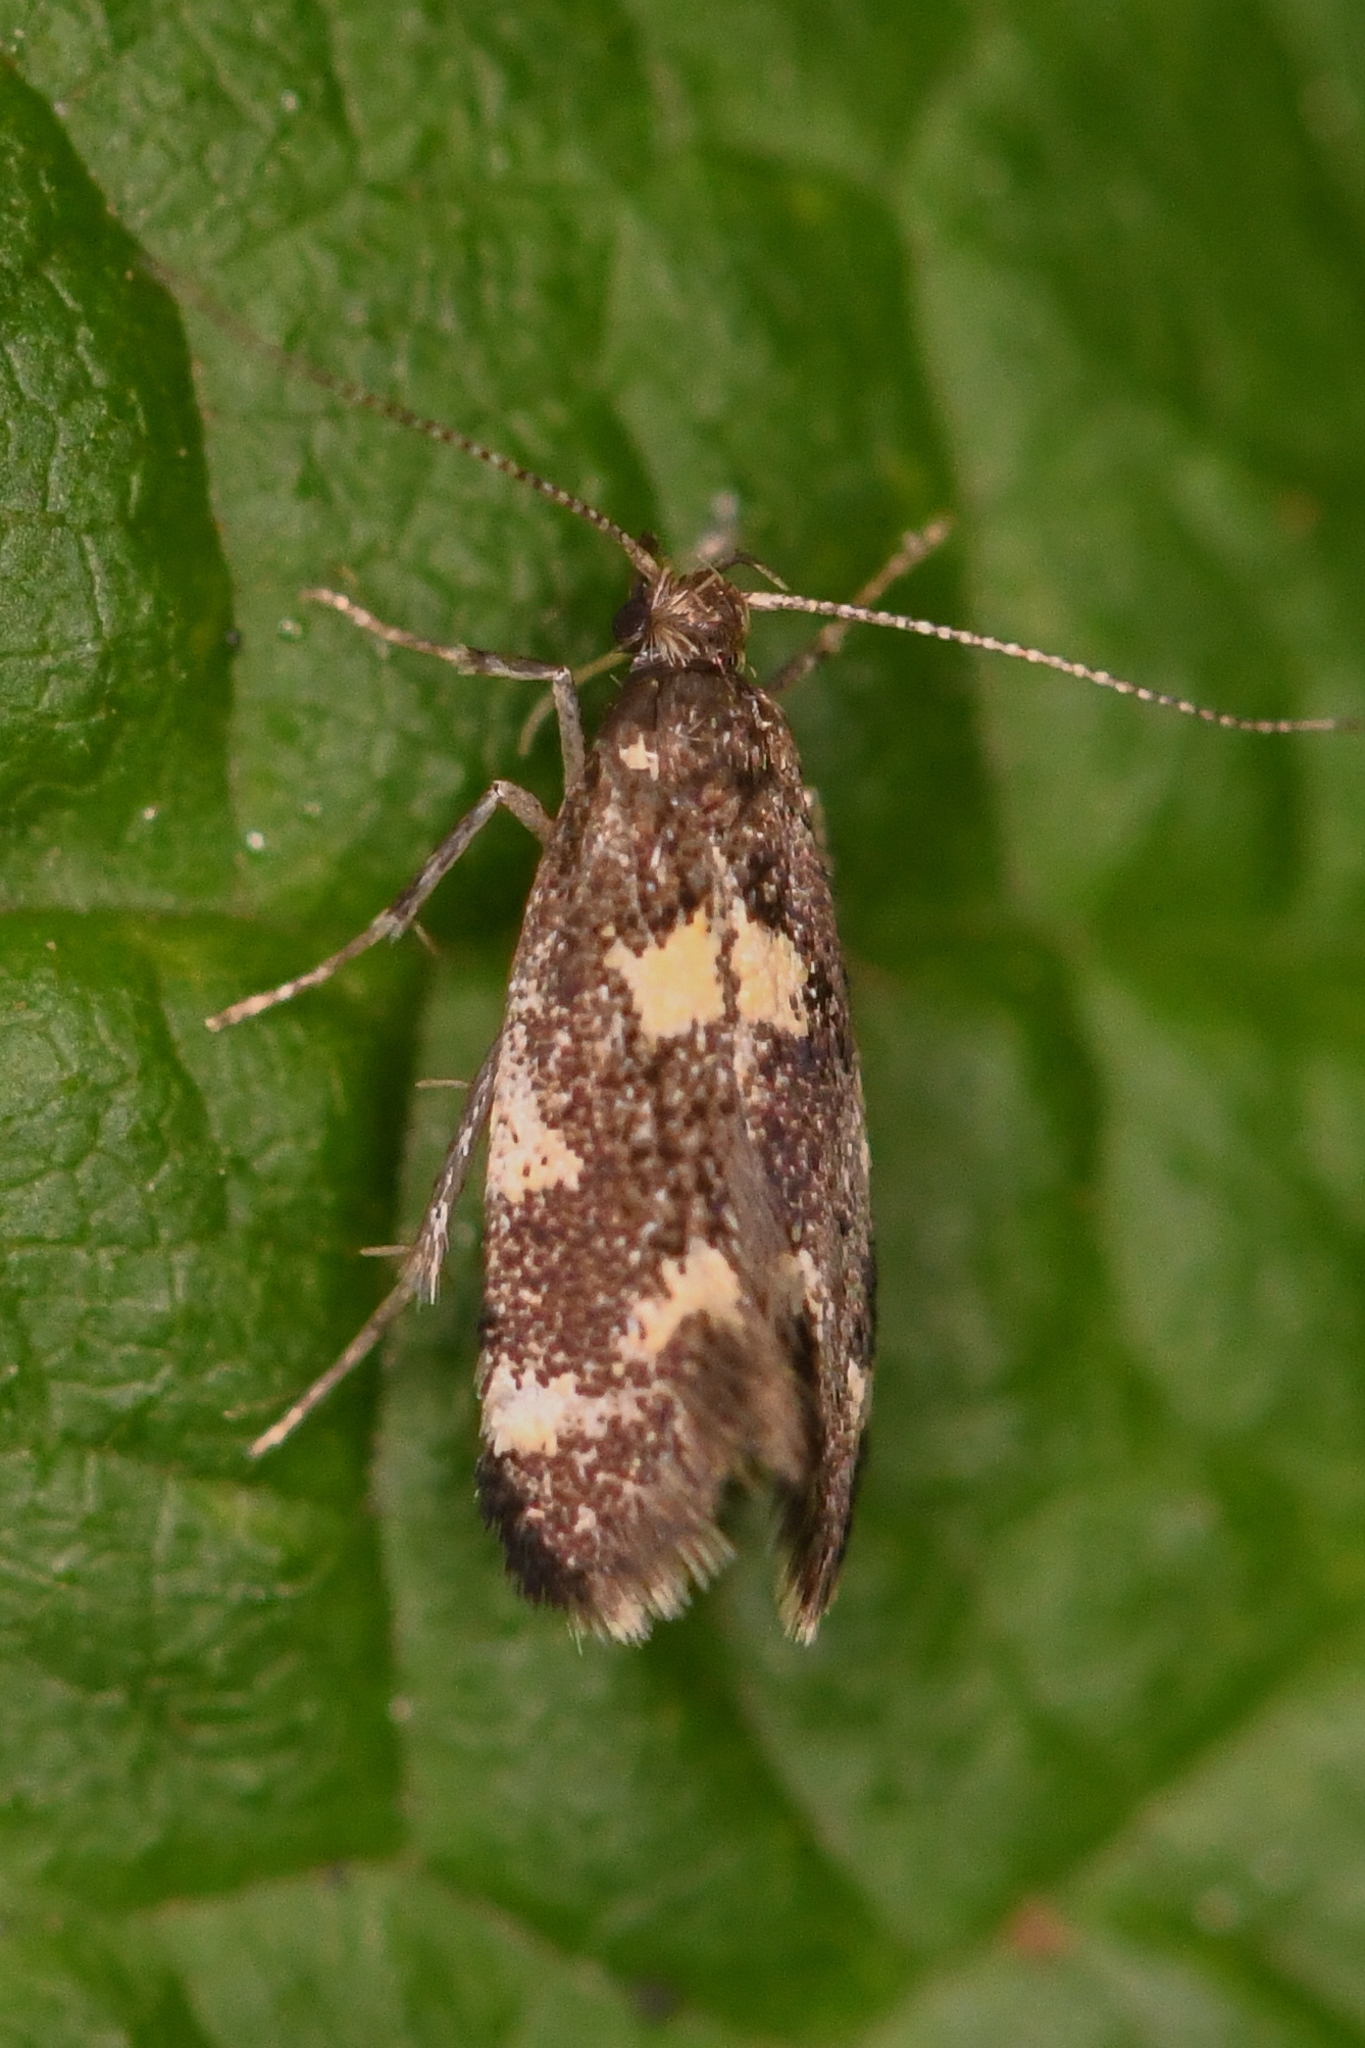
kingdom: Animalia
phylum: Arthropoda
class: Insecta
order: Lepidoptera
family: Oecophoridae
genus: Brymblia
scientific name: Brymblia quadrimaculella
